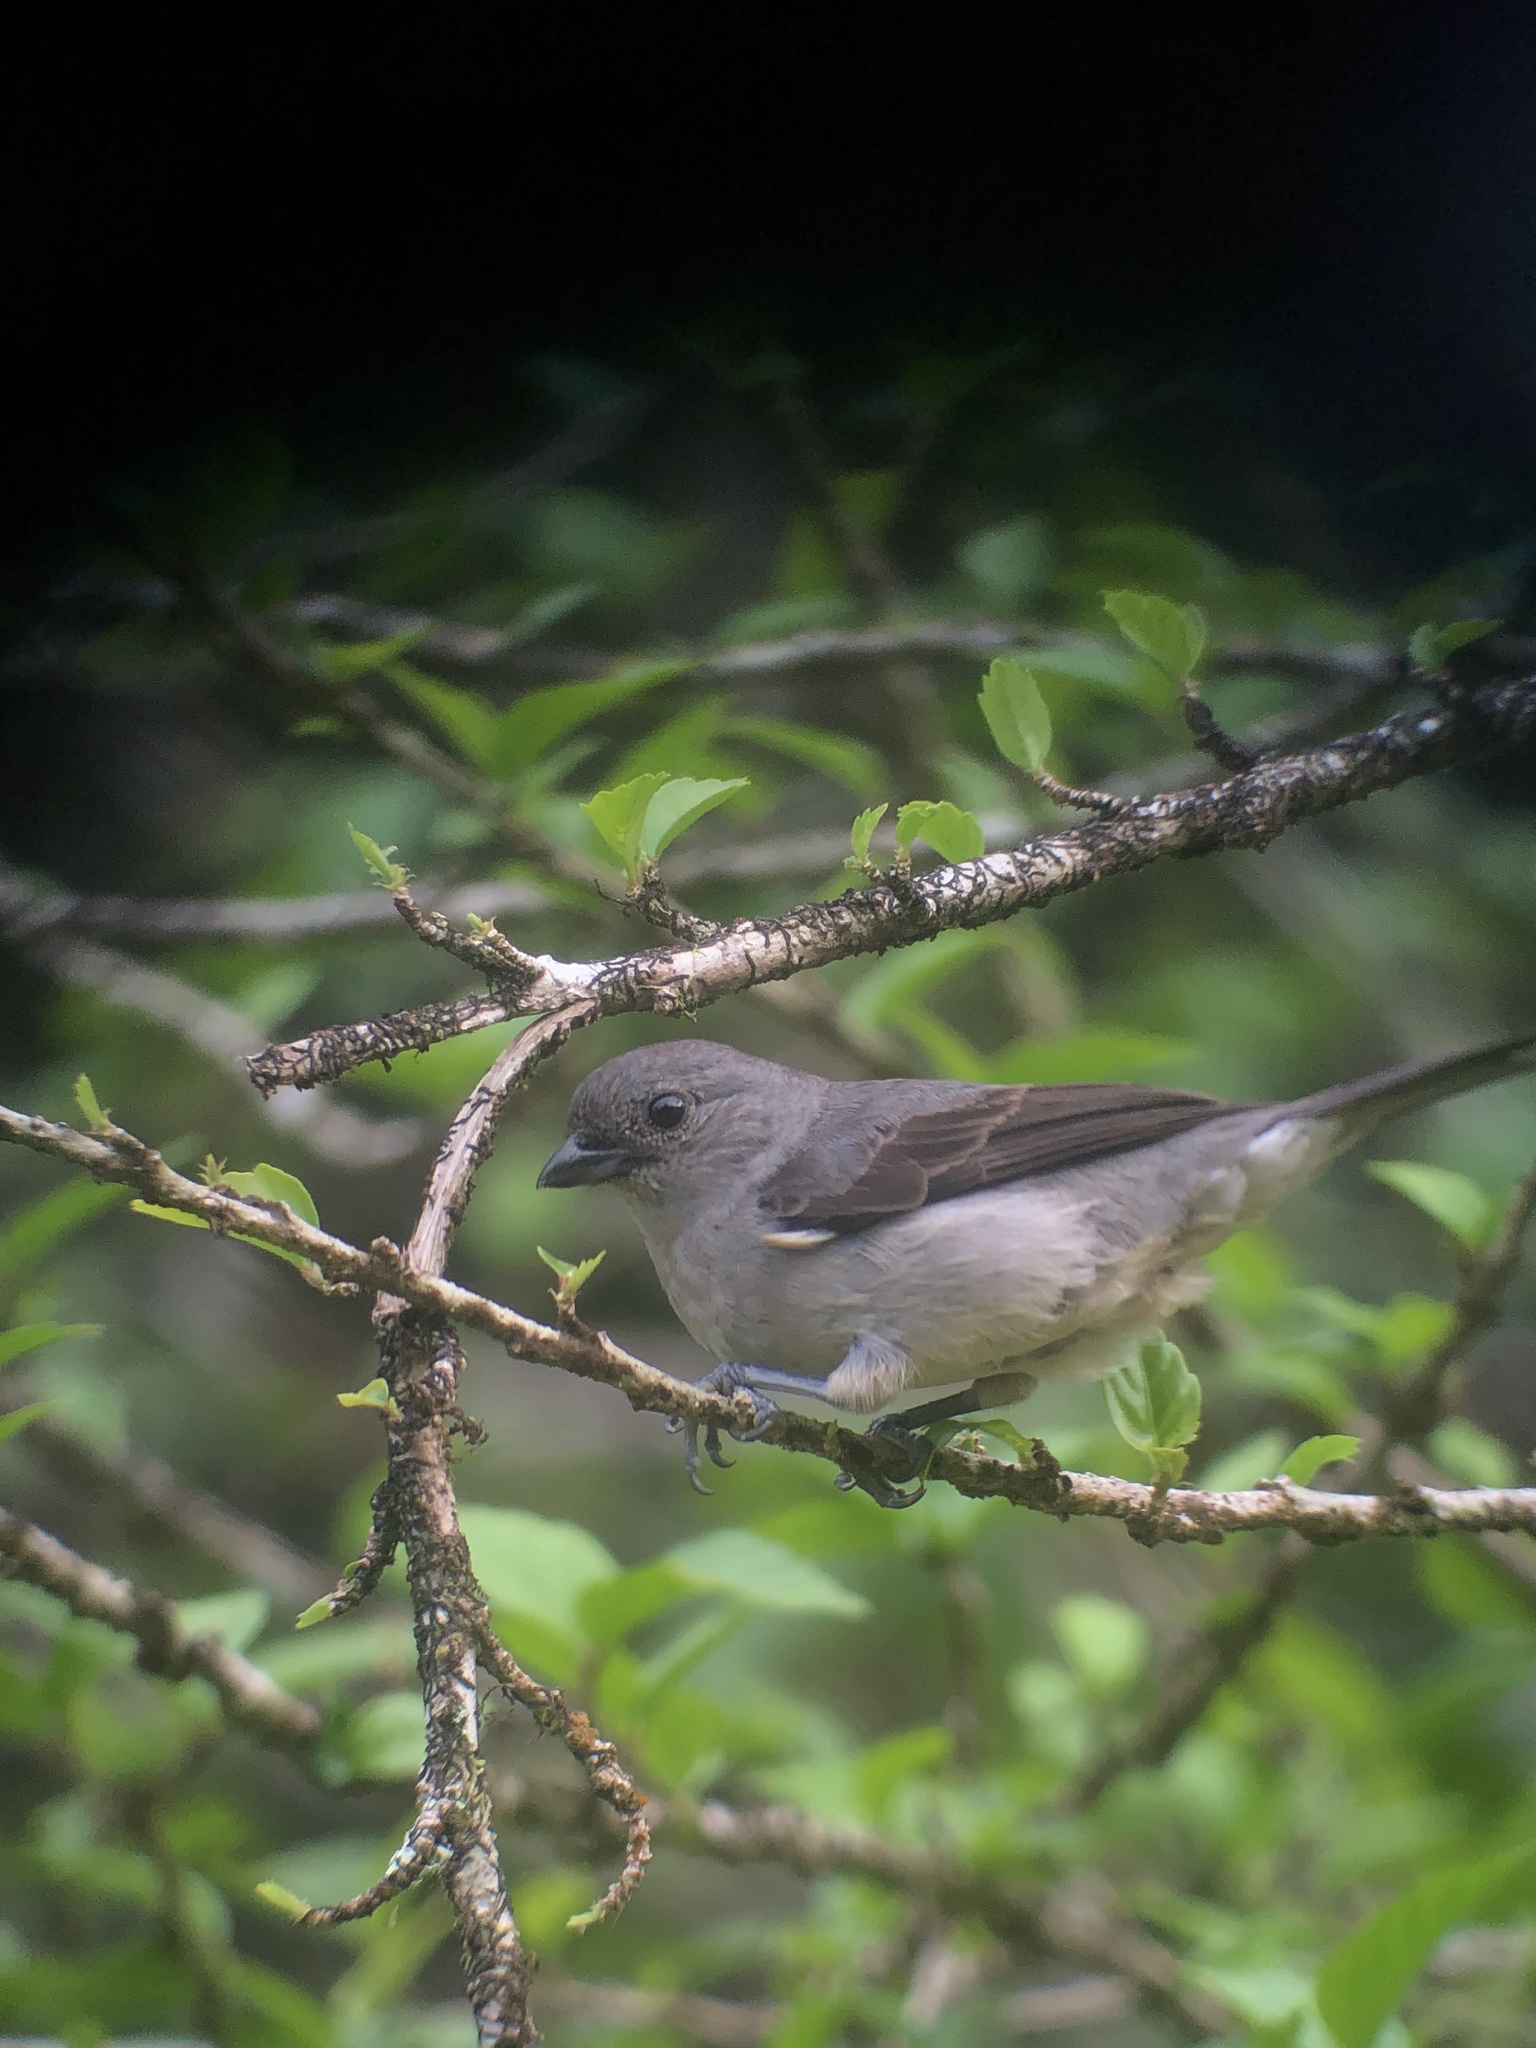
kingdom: Animalia
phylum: Chordata
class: Aves
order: Passeriformes
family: Thraupidae
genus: Tangara
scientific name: Tangara inornata
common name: Plain-colored tanager
